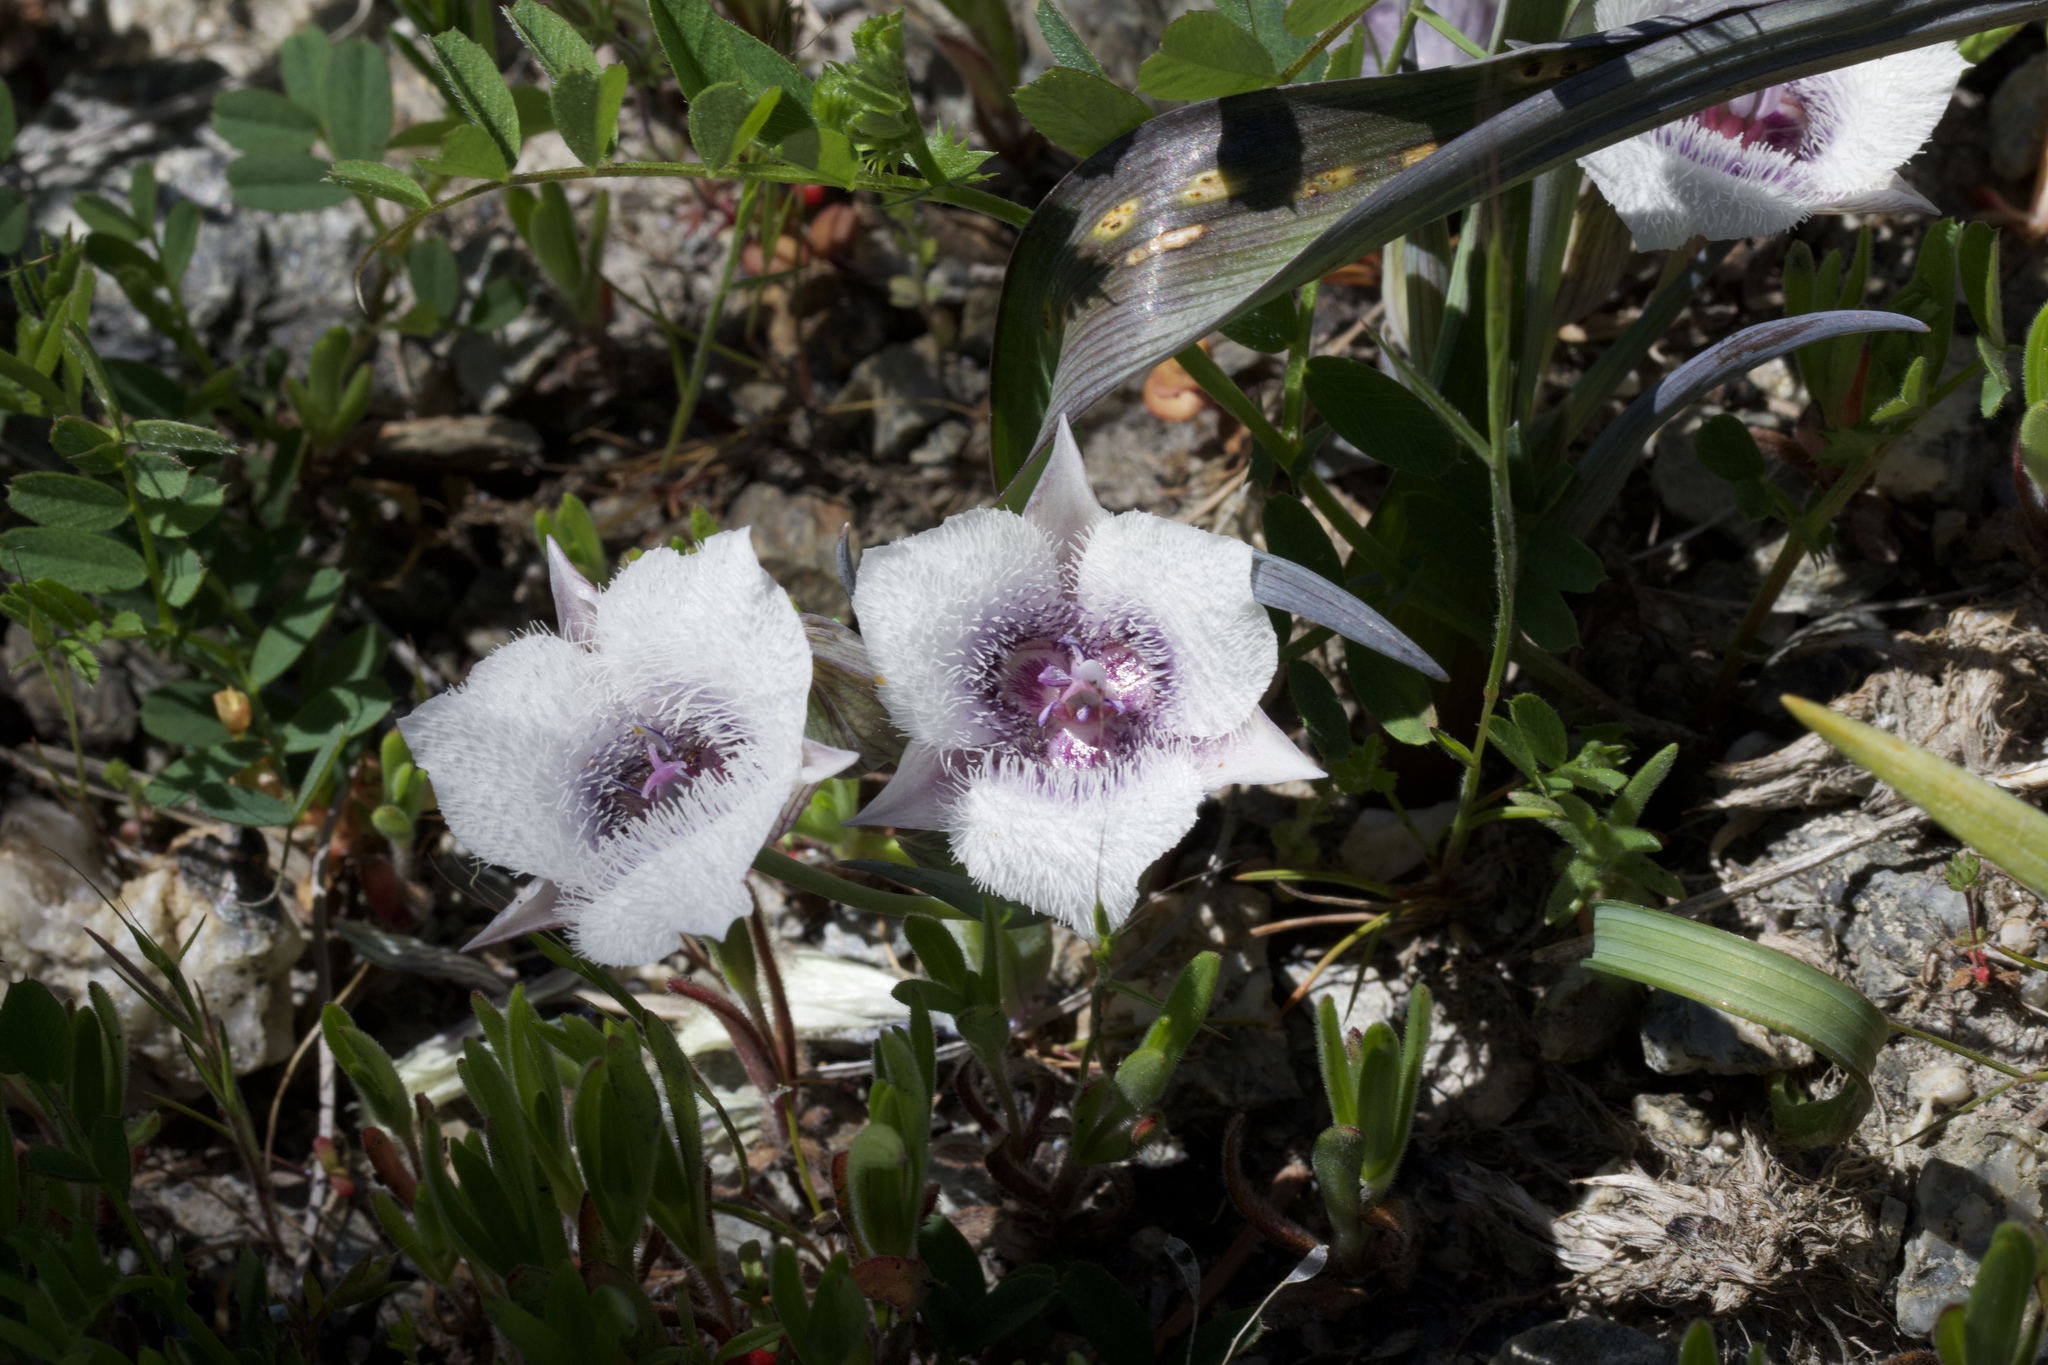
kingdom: Plantae
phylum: Tracheophyta
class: Liliopsida
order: Liliales
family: Liliaceae
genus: Calochortus
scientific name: Calochortus tolmiei
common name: Pussy-ears
